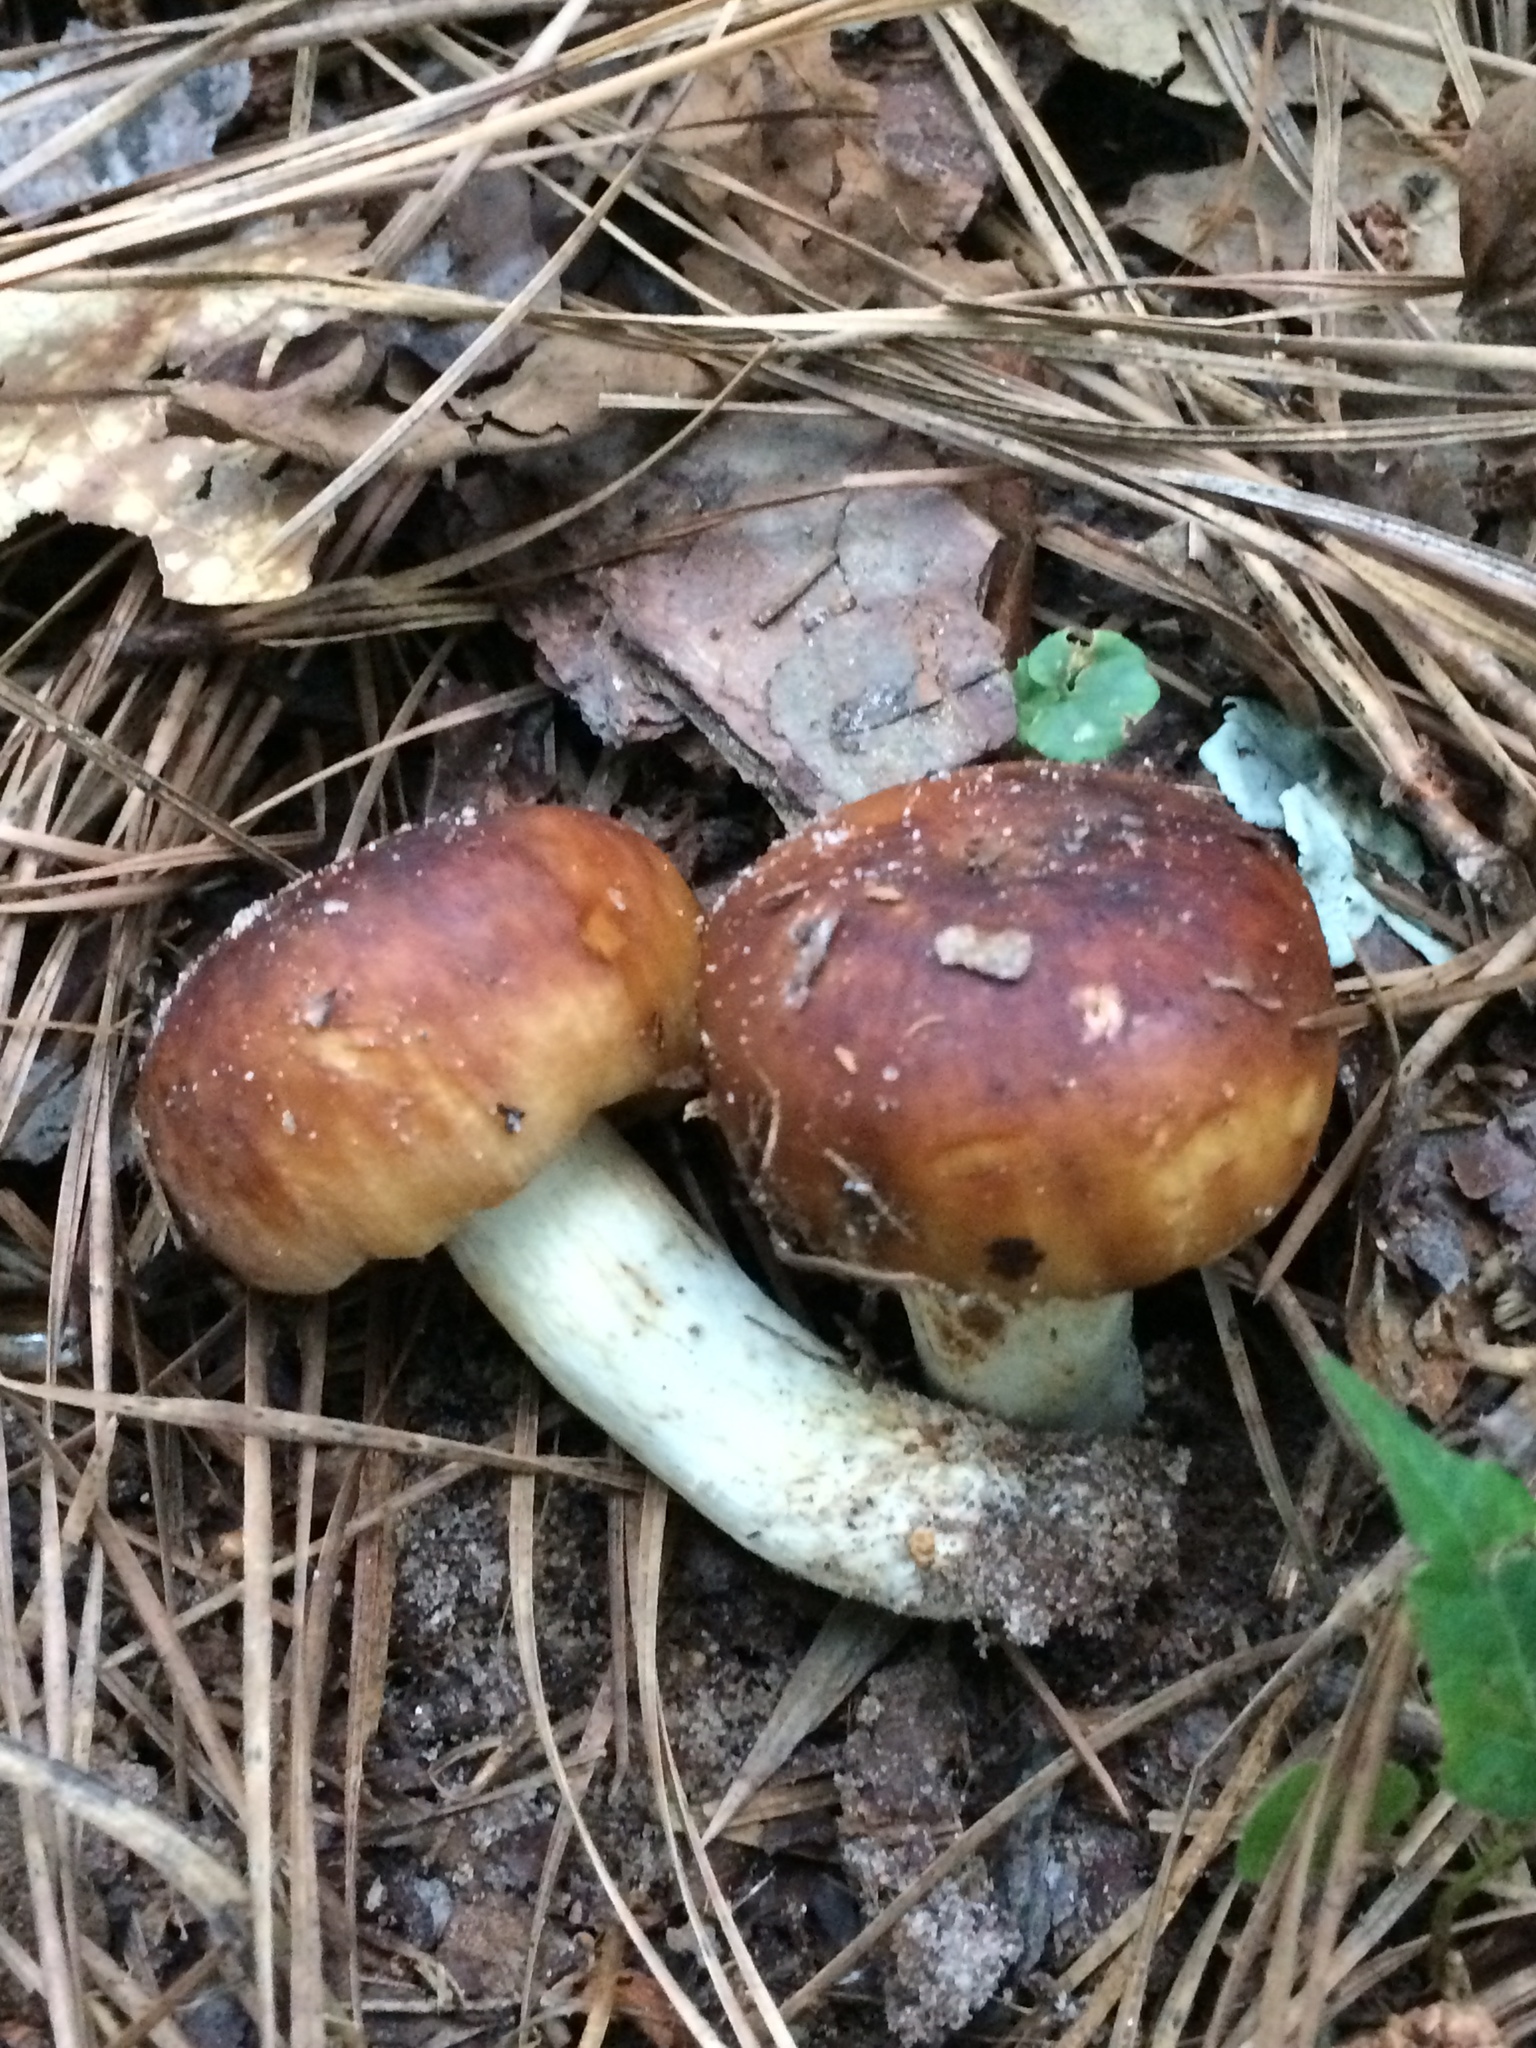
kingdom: Fungi
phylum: Basidiomycota
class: Agaricomycetes
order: Russulales
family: Russulaceae
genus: Russula
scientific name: Russula grata
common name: Bitter almond brittlegill
